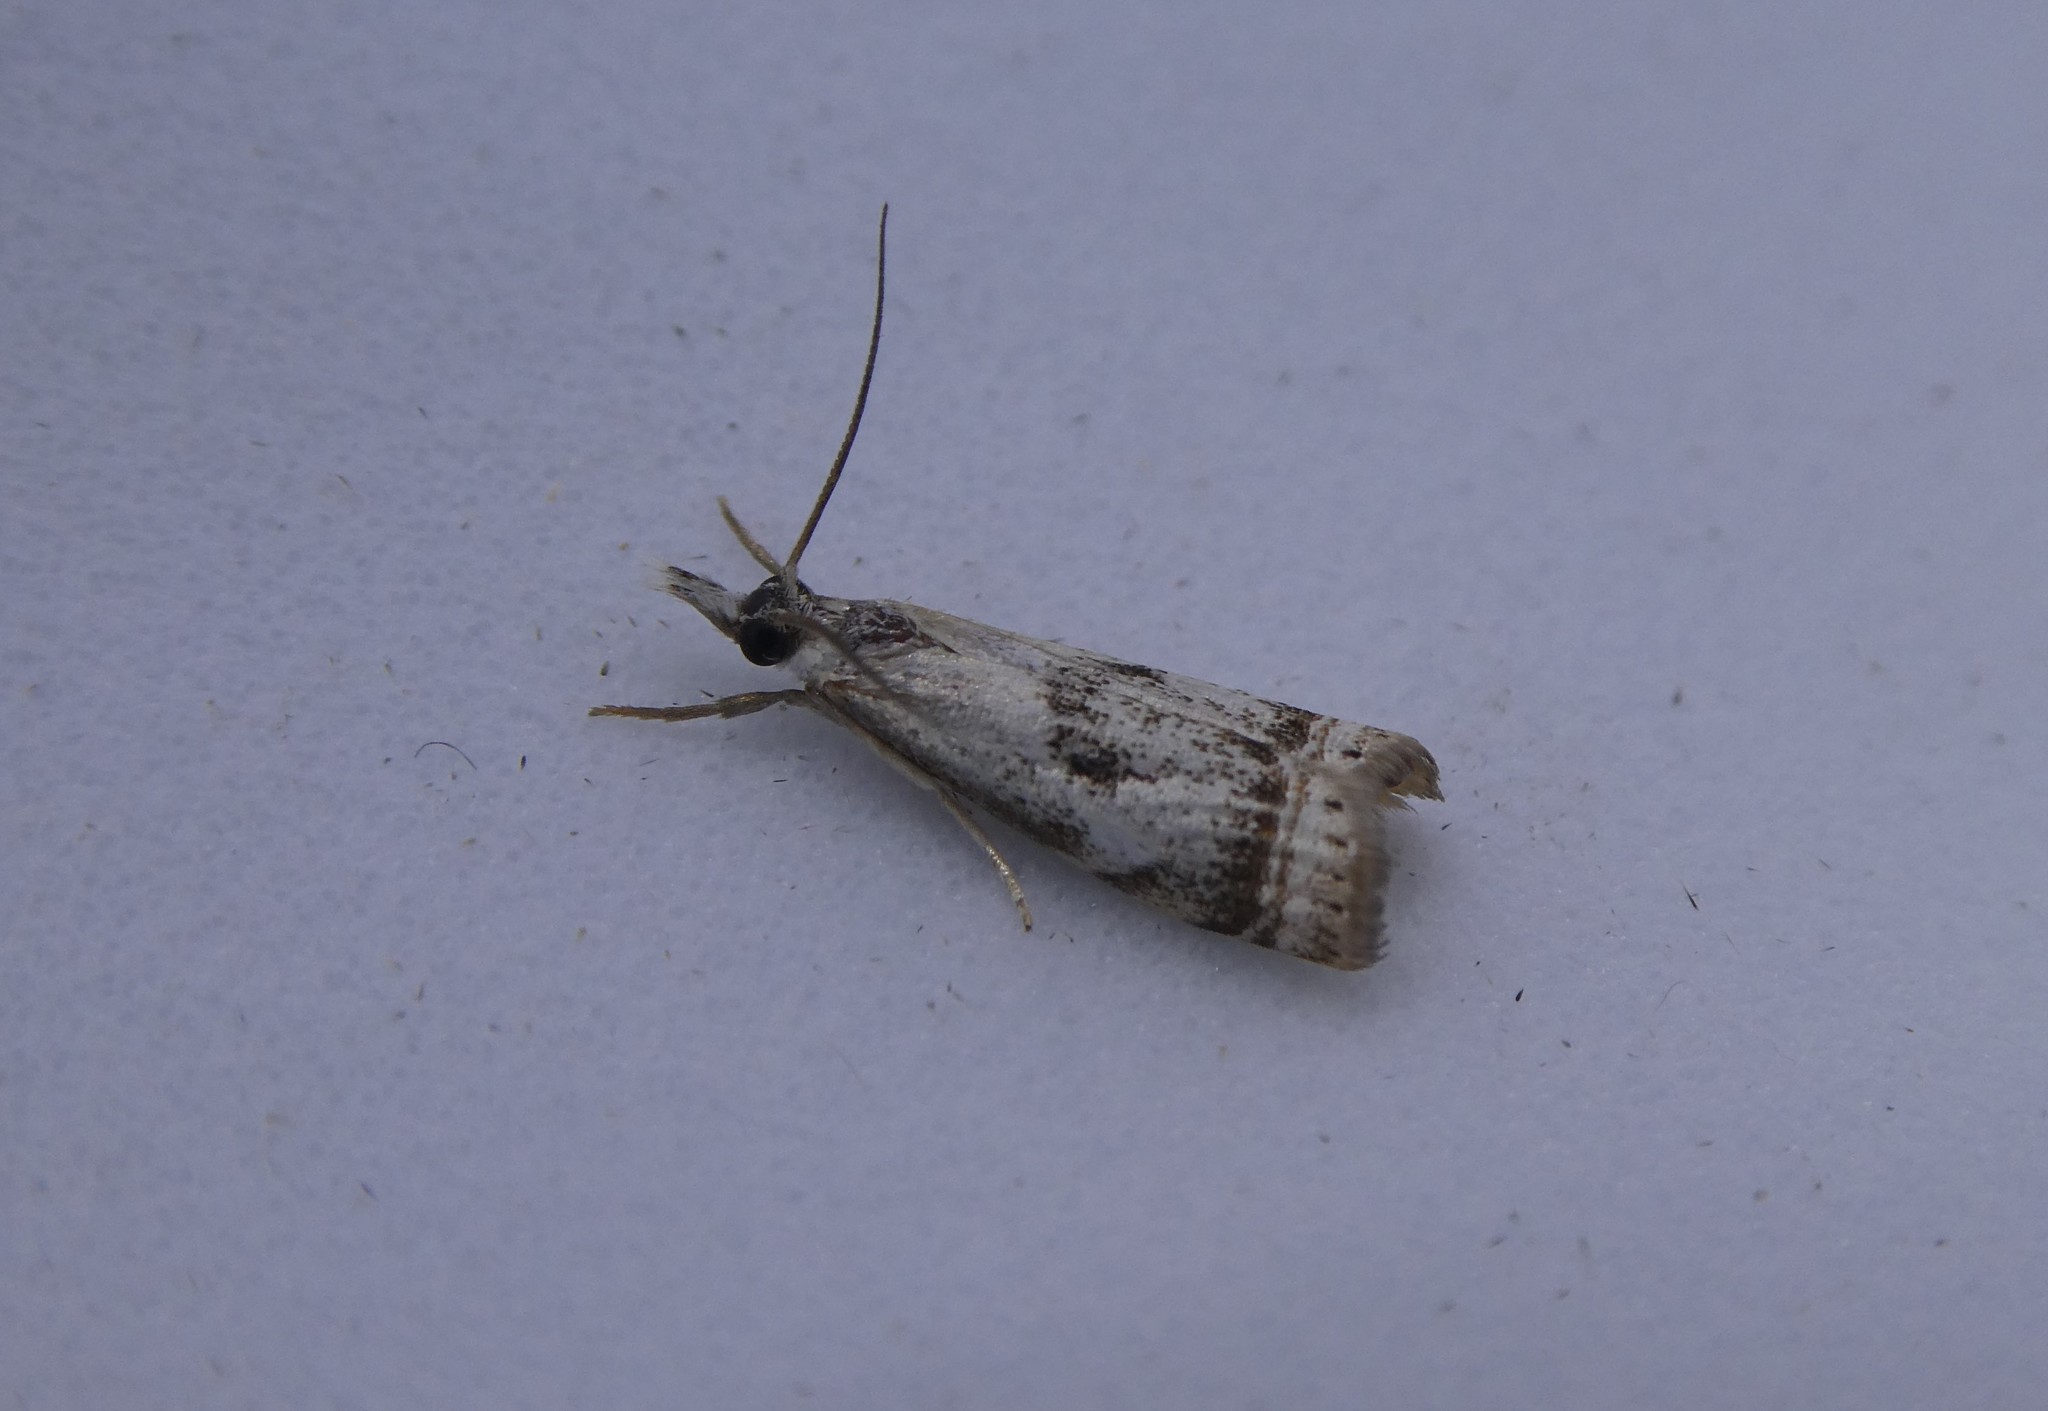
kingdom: Animalia
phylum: Arthropoda
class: Insecta
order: Lepidoptera
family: Crambidae
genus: Microcrambus
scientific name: Microcrambus elegans
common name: Elegant grass-veneer
